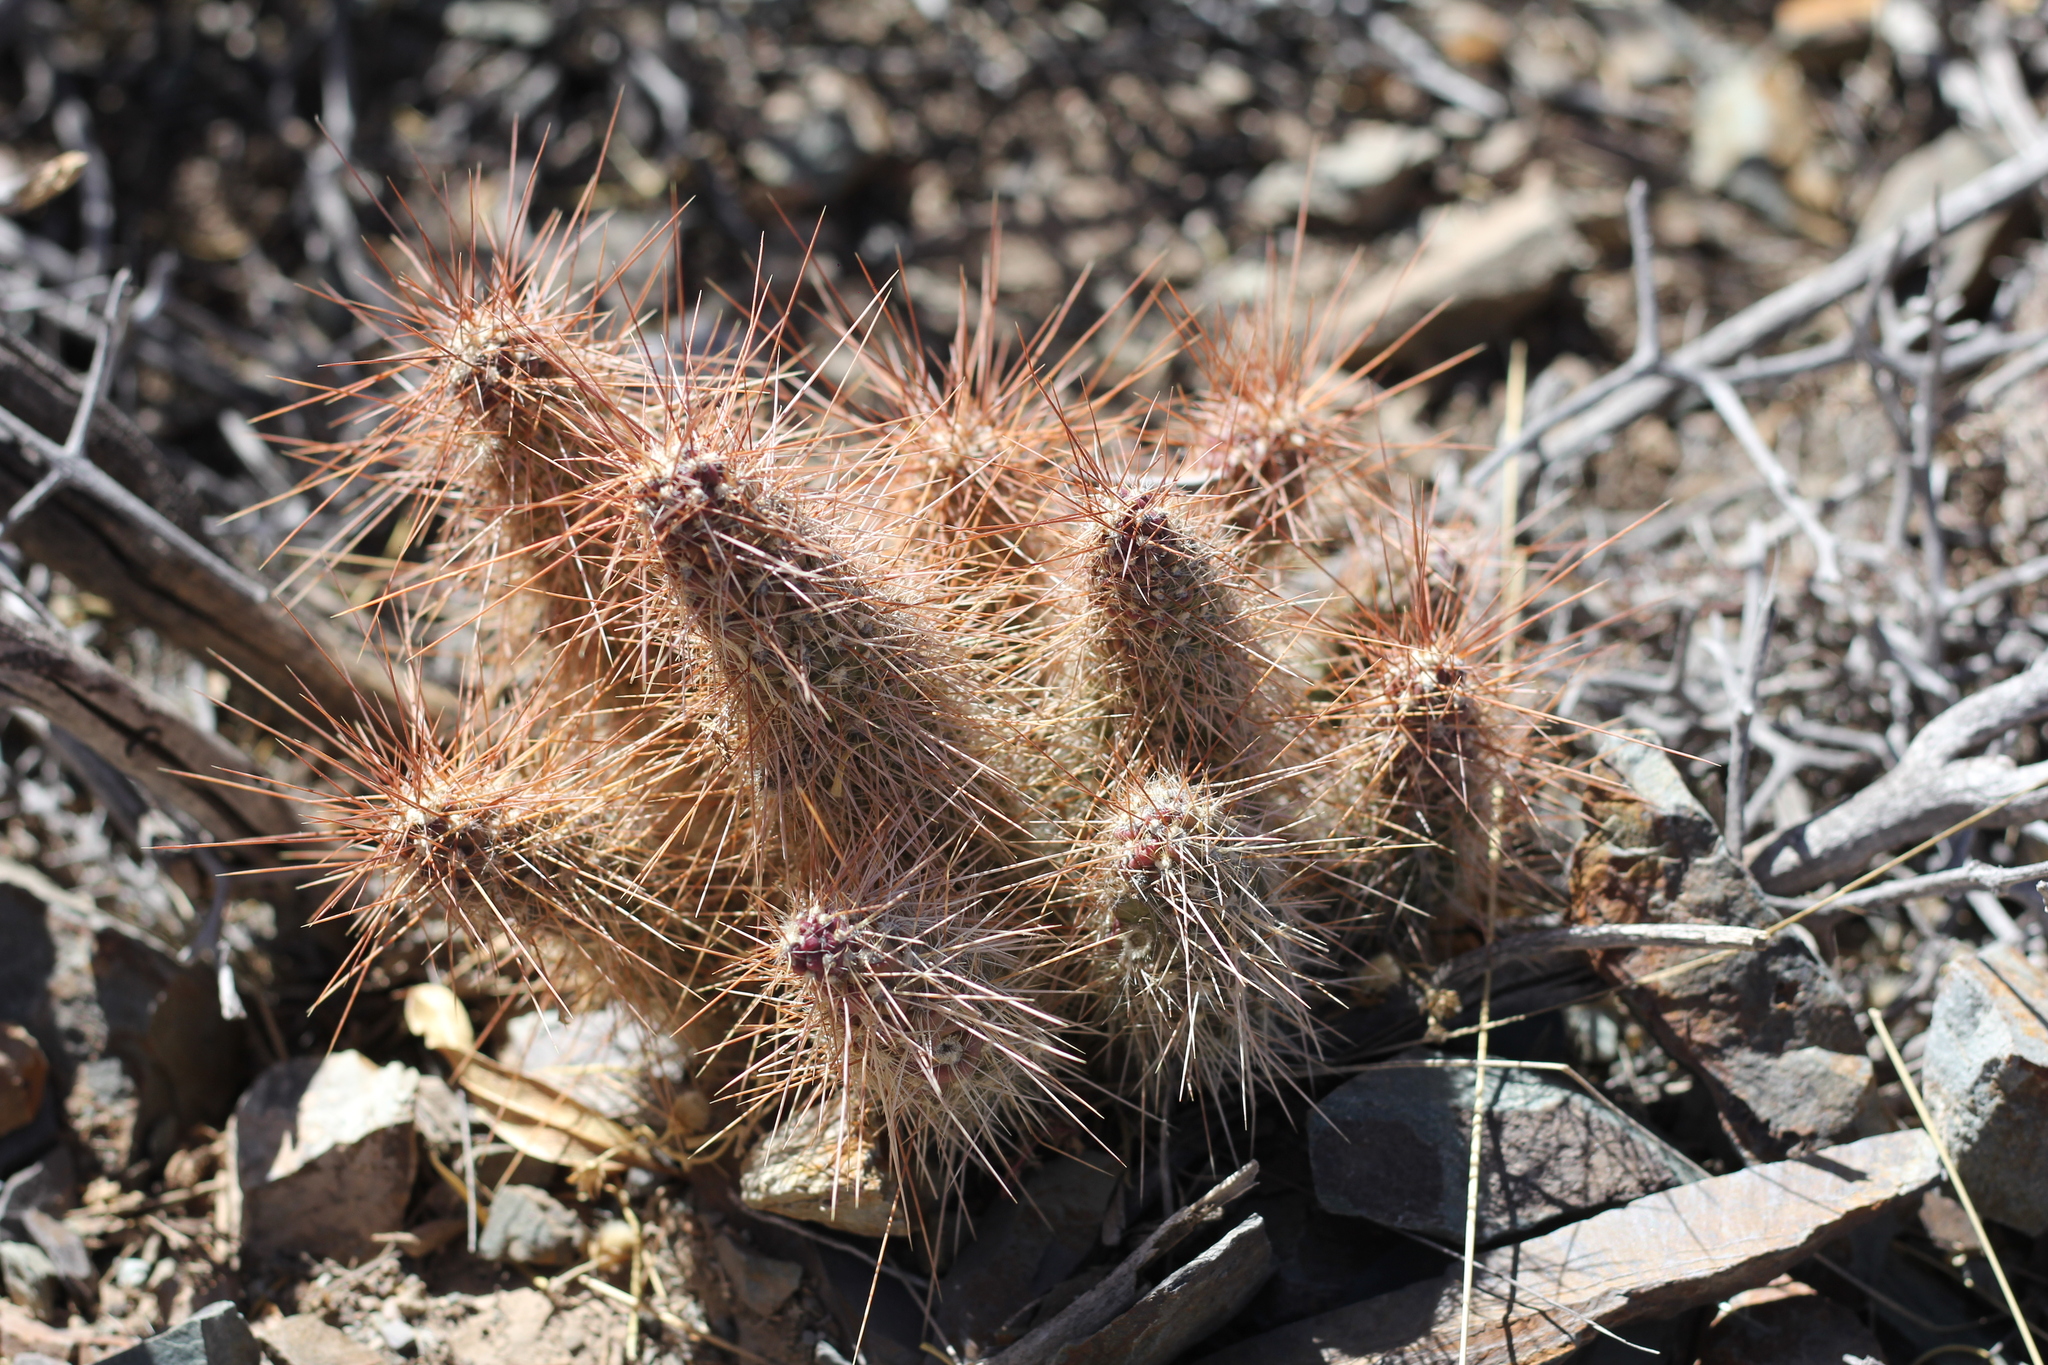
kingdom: Plantae
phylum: Tracheophyta
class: Magnoliopsida
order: Caryophyllales
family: Cactaceae
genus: Austrocylindropuntia
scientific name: Austrocylindropuntia shaferi
